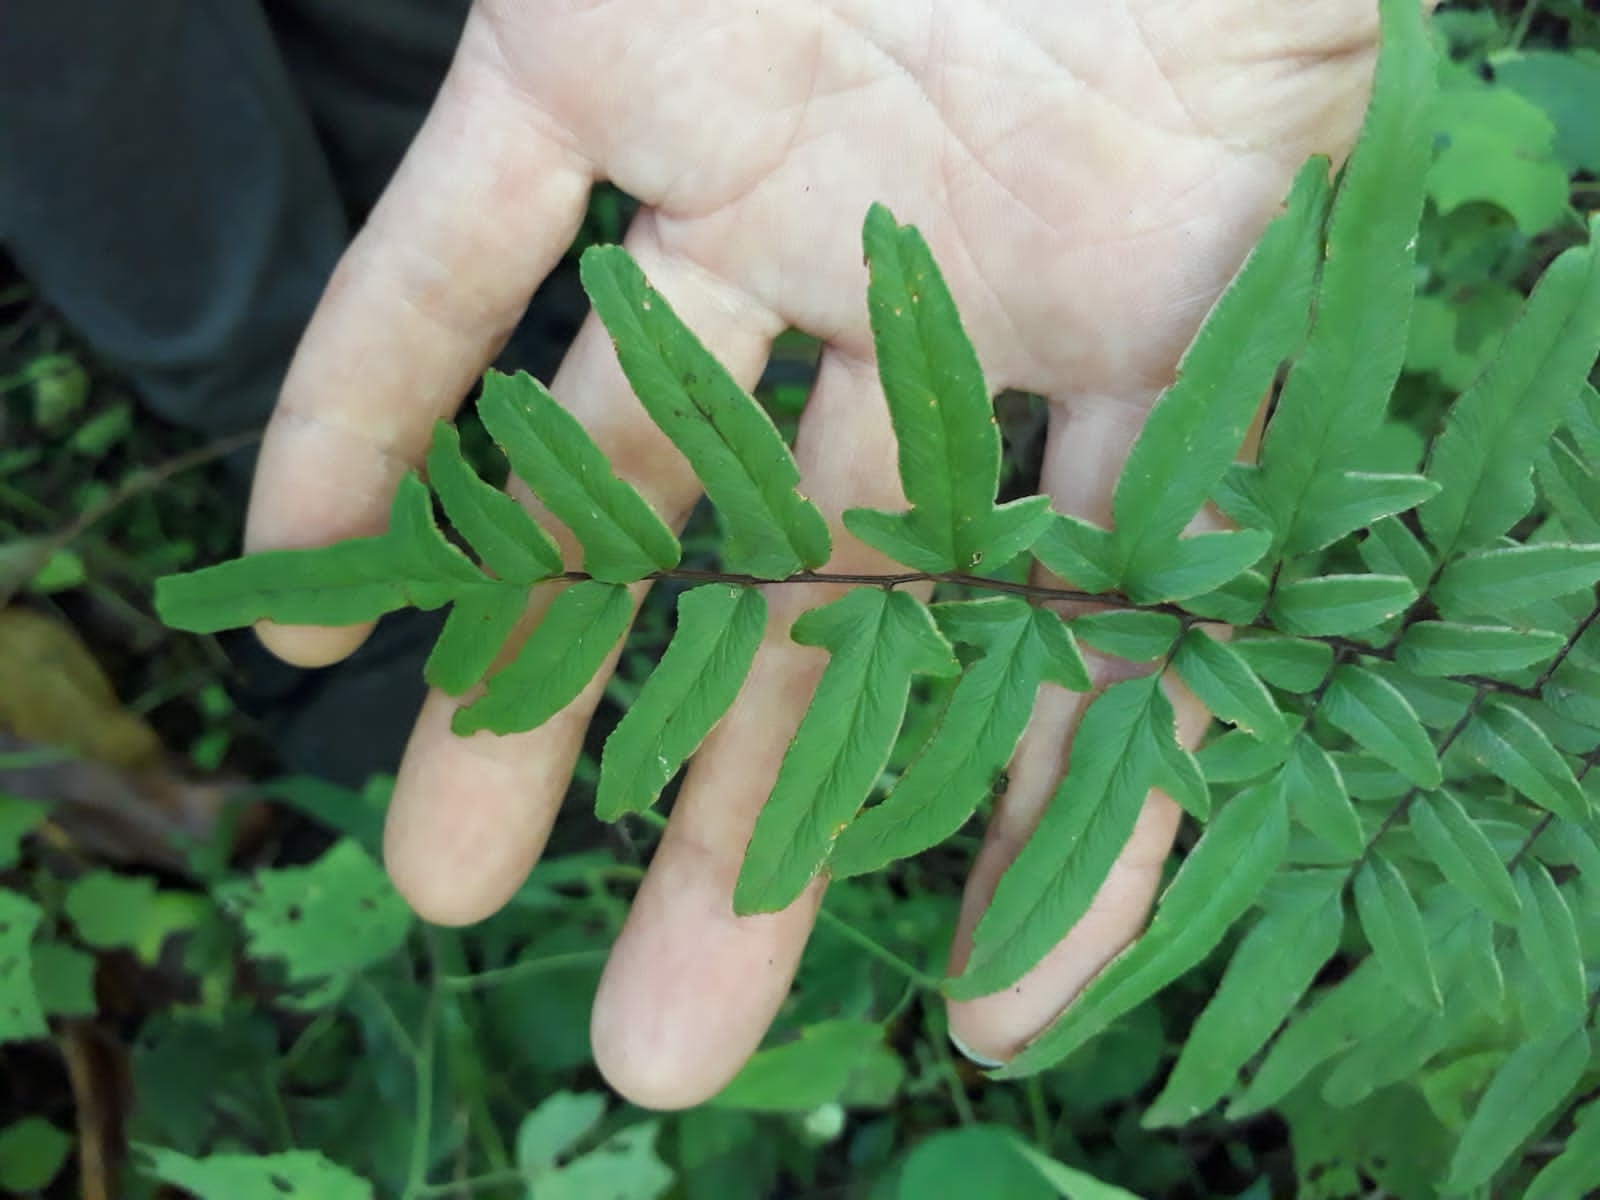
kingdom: Plantae
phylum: Tracheophyta
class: Polypodiopsida
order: Polypodiales
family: Pteridaceae
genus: Cheilanthes
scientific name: Cheilanthes viridis
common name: Green cliffbrake
